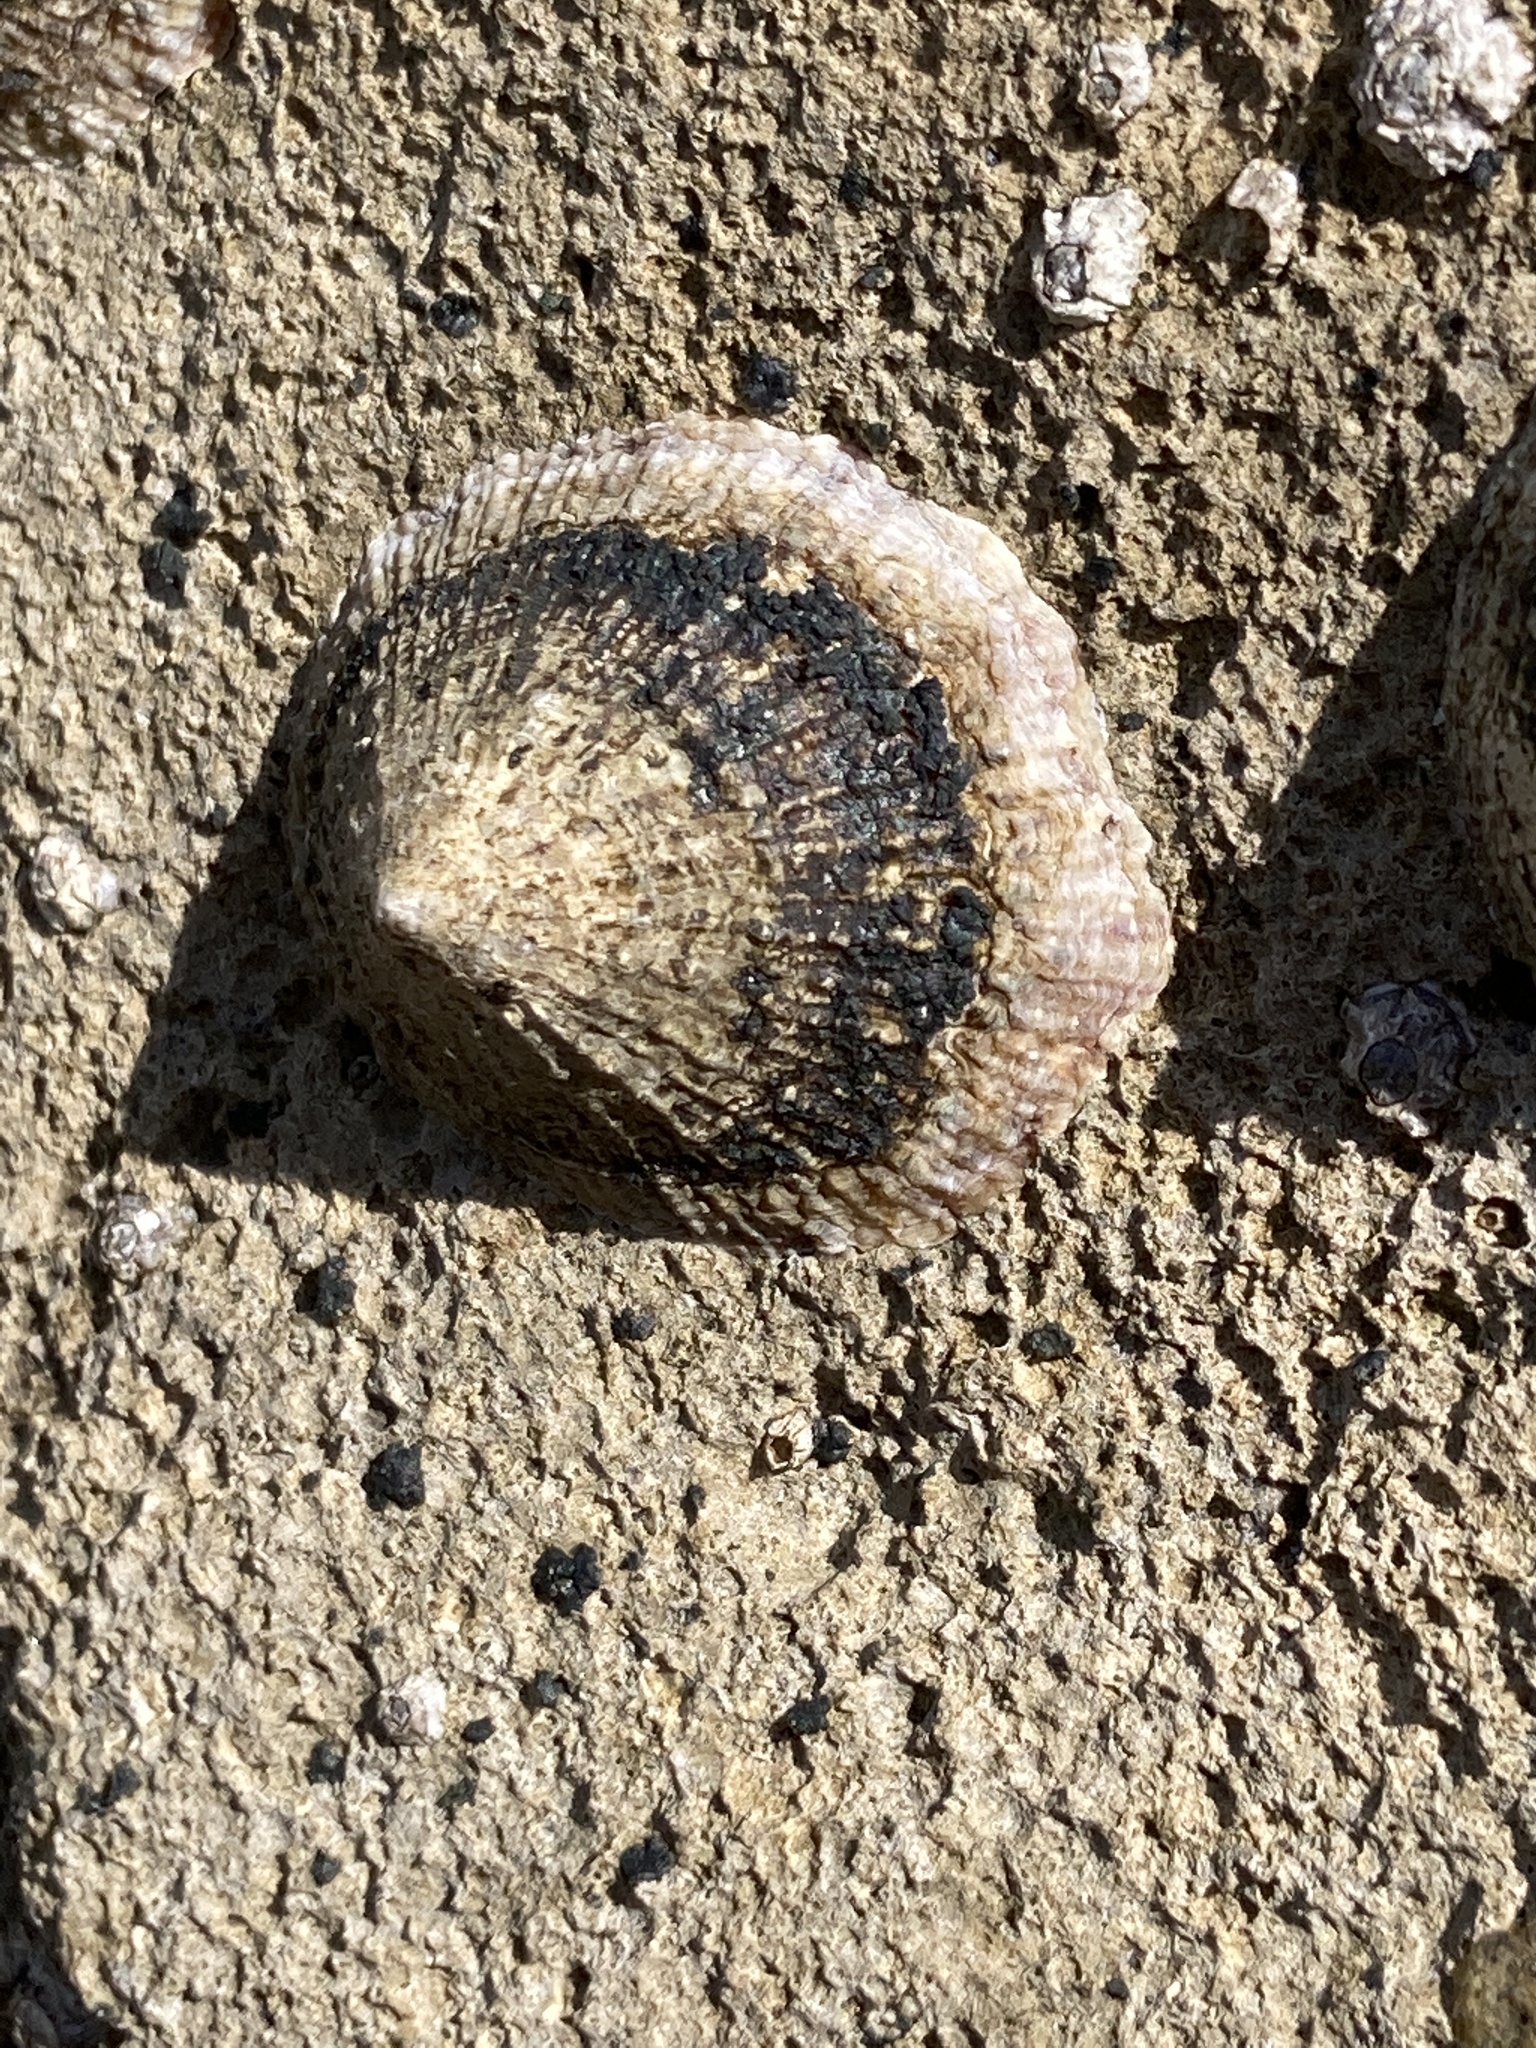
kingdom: Animalia
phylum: Mollusca
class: Gastropoda
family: Patellidae
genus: Patella
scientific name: Patella
